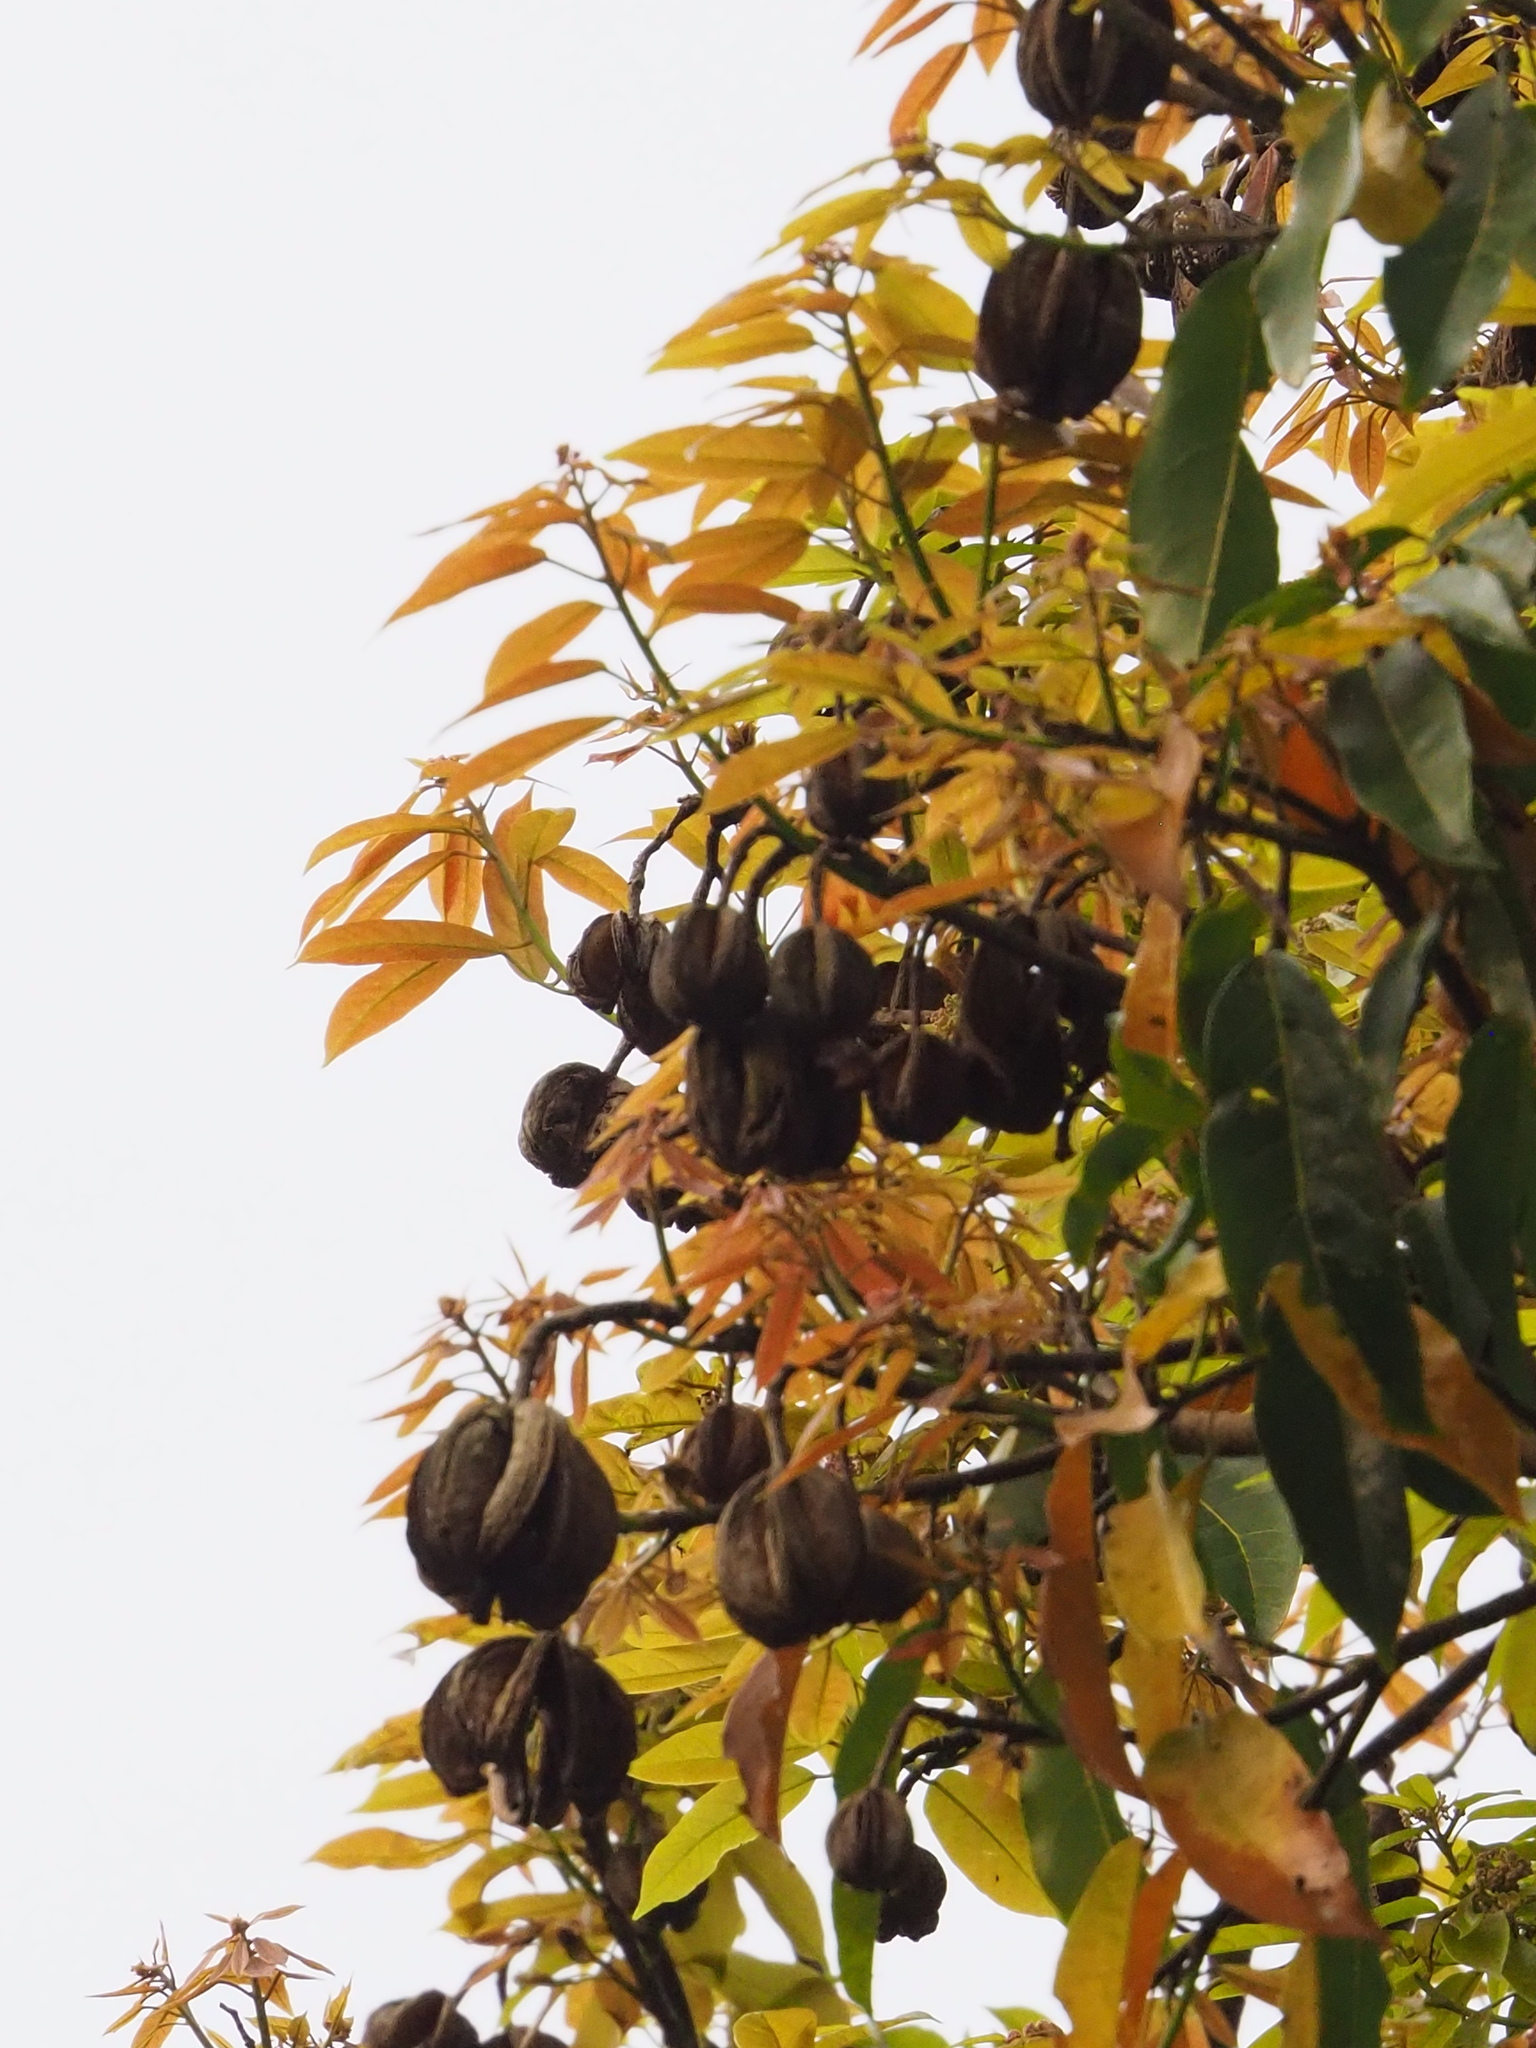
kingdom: Plantae
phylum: Tracheophyta
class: Magnoliopsida
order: Malvales
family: Malvaceae
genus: Reevesia
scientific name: Reevesia thyrsoidea
